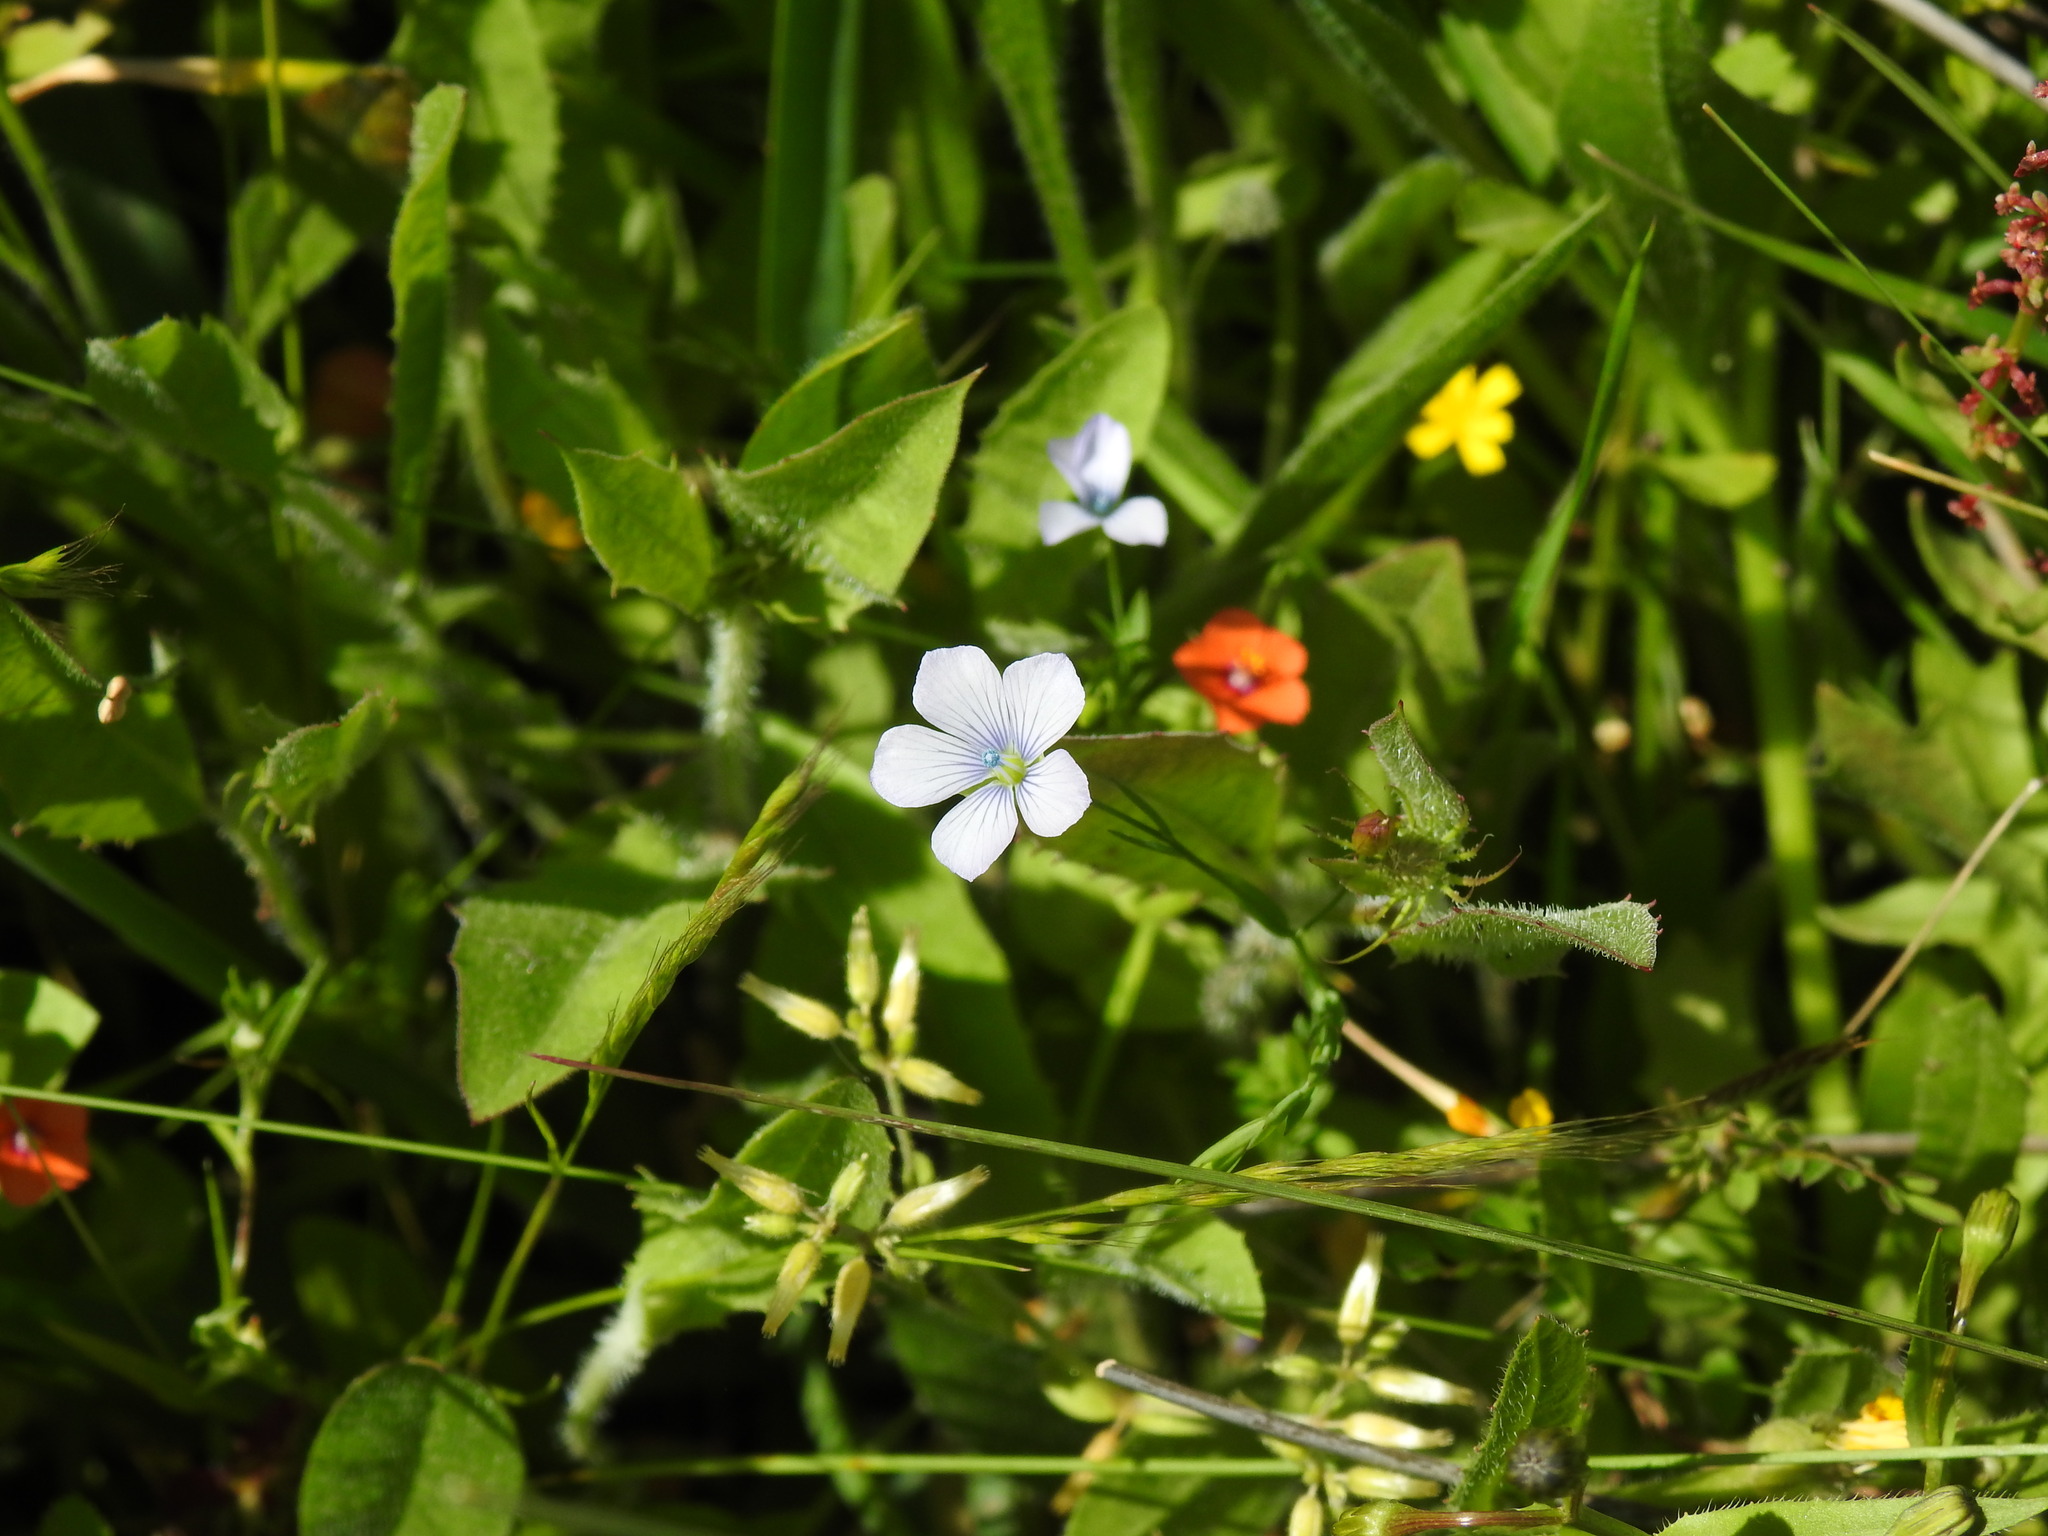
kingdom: Plantae
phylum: Tracheophyta
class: Magnoliopsida
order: Malpighiales
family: Linaceae
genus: Linum
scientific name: Linum bienne
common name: Pale flax
